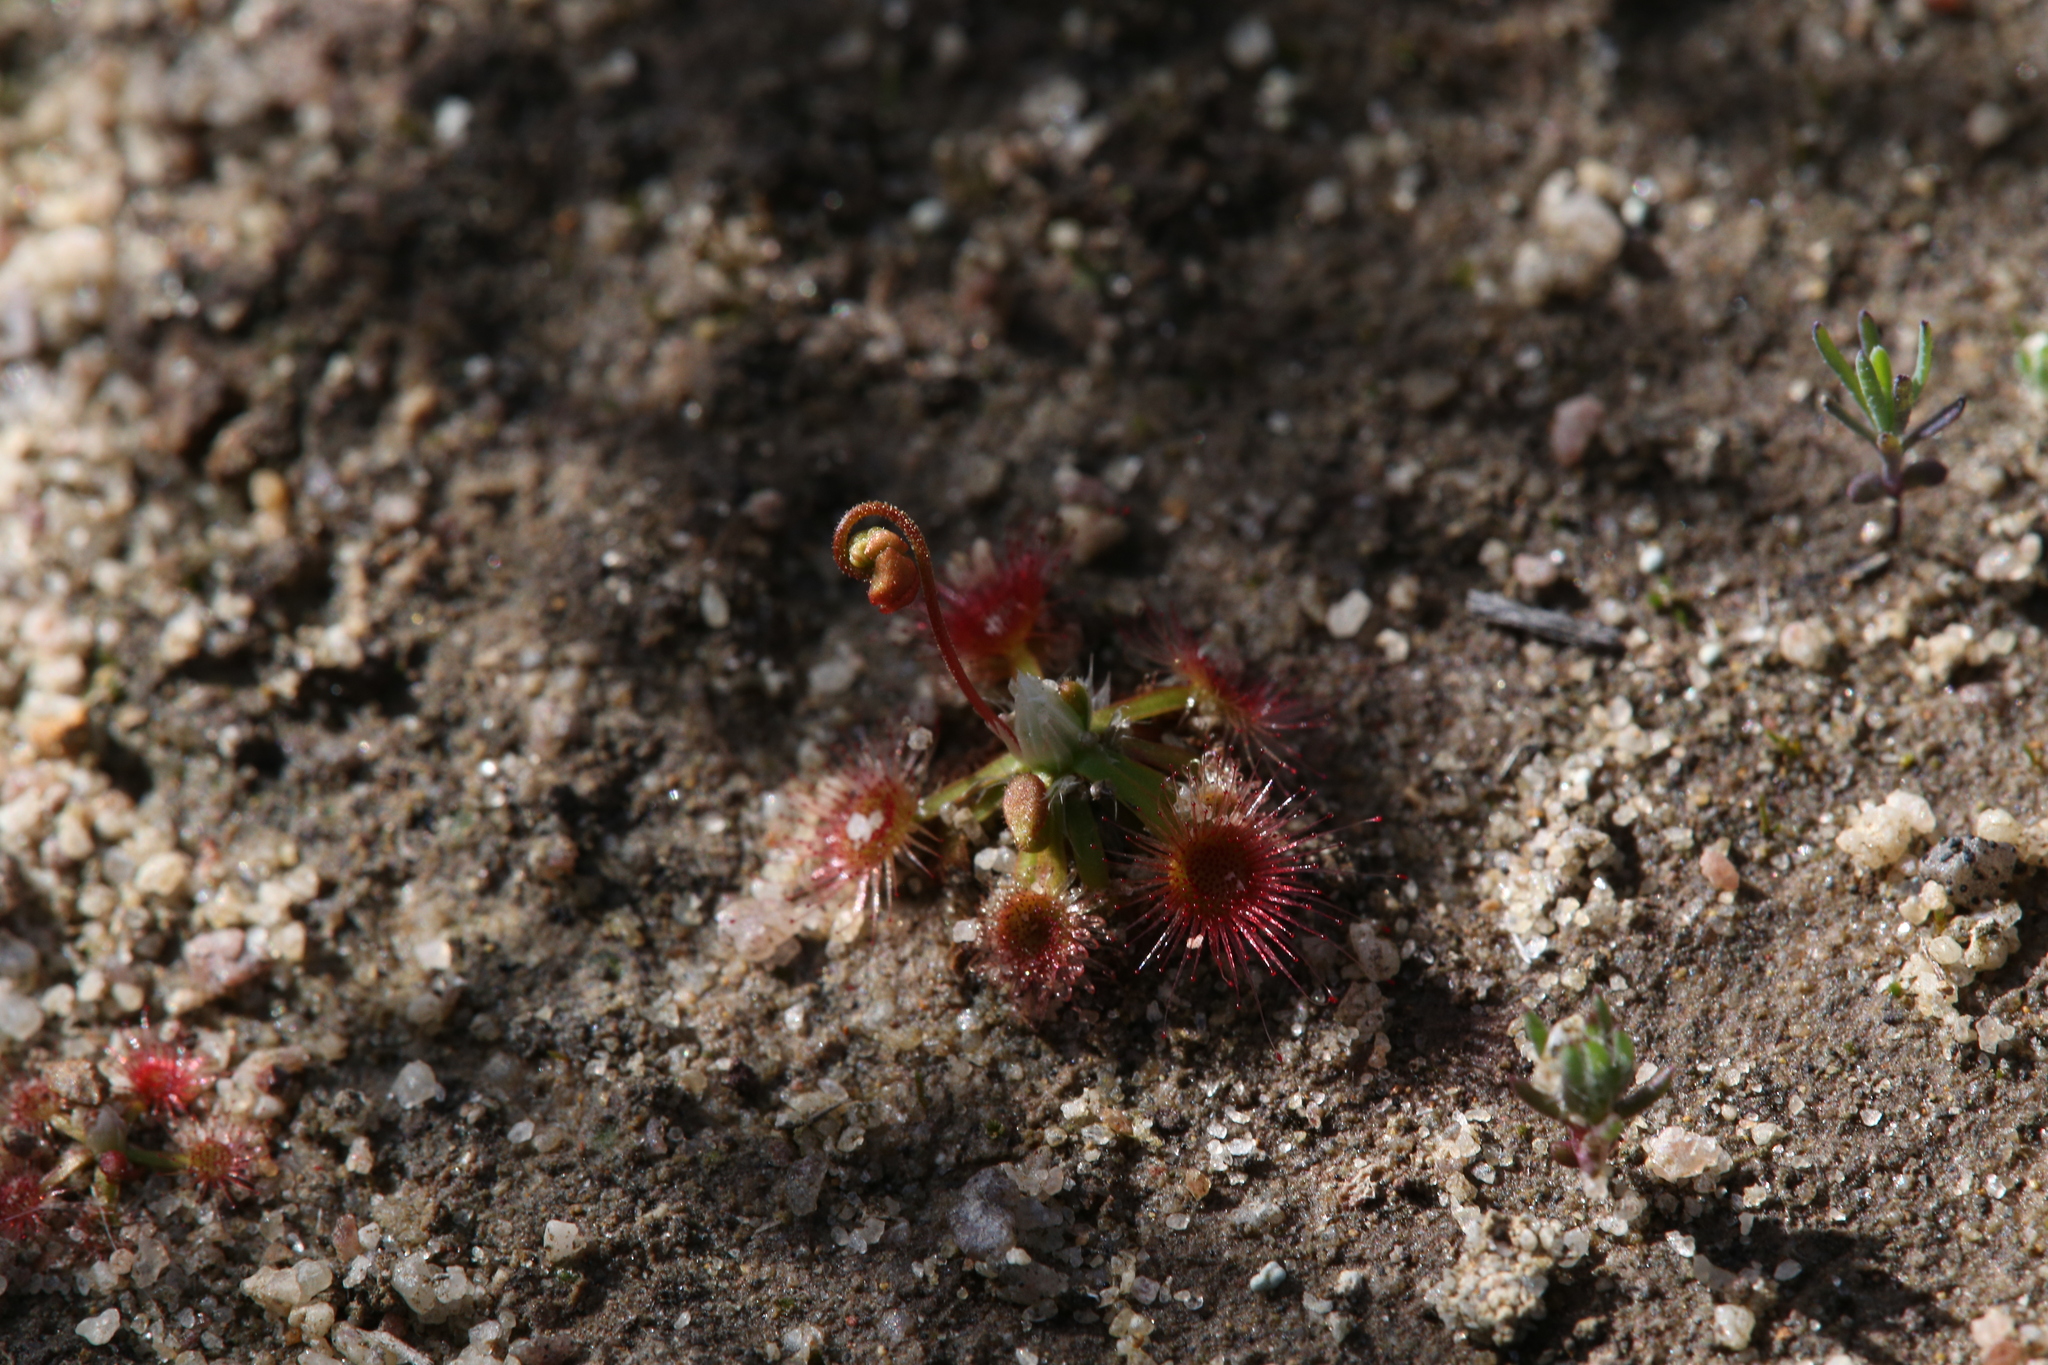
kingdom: Plantae
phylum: Tracheophyta
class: Magnoliopsida
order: Caryophyllales
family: Droseraceae
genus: Drosera
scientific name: Drosera androsacea
